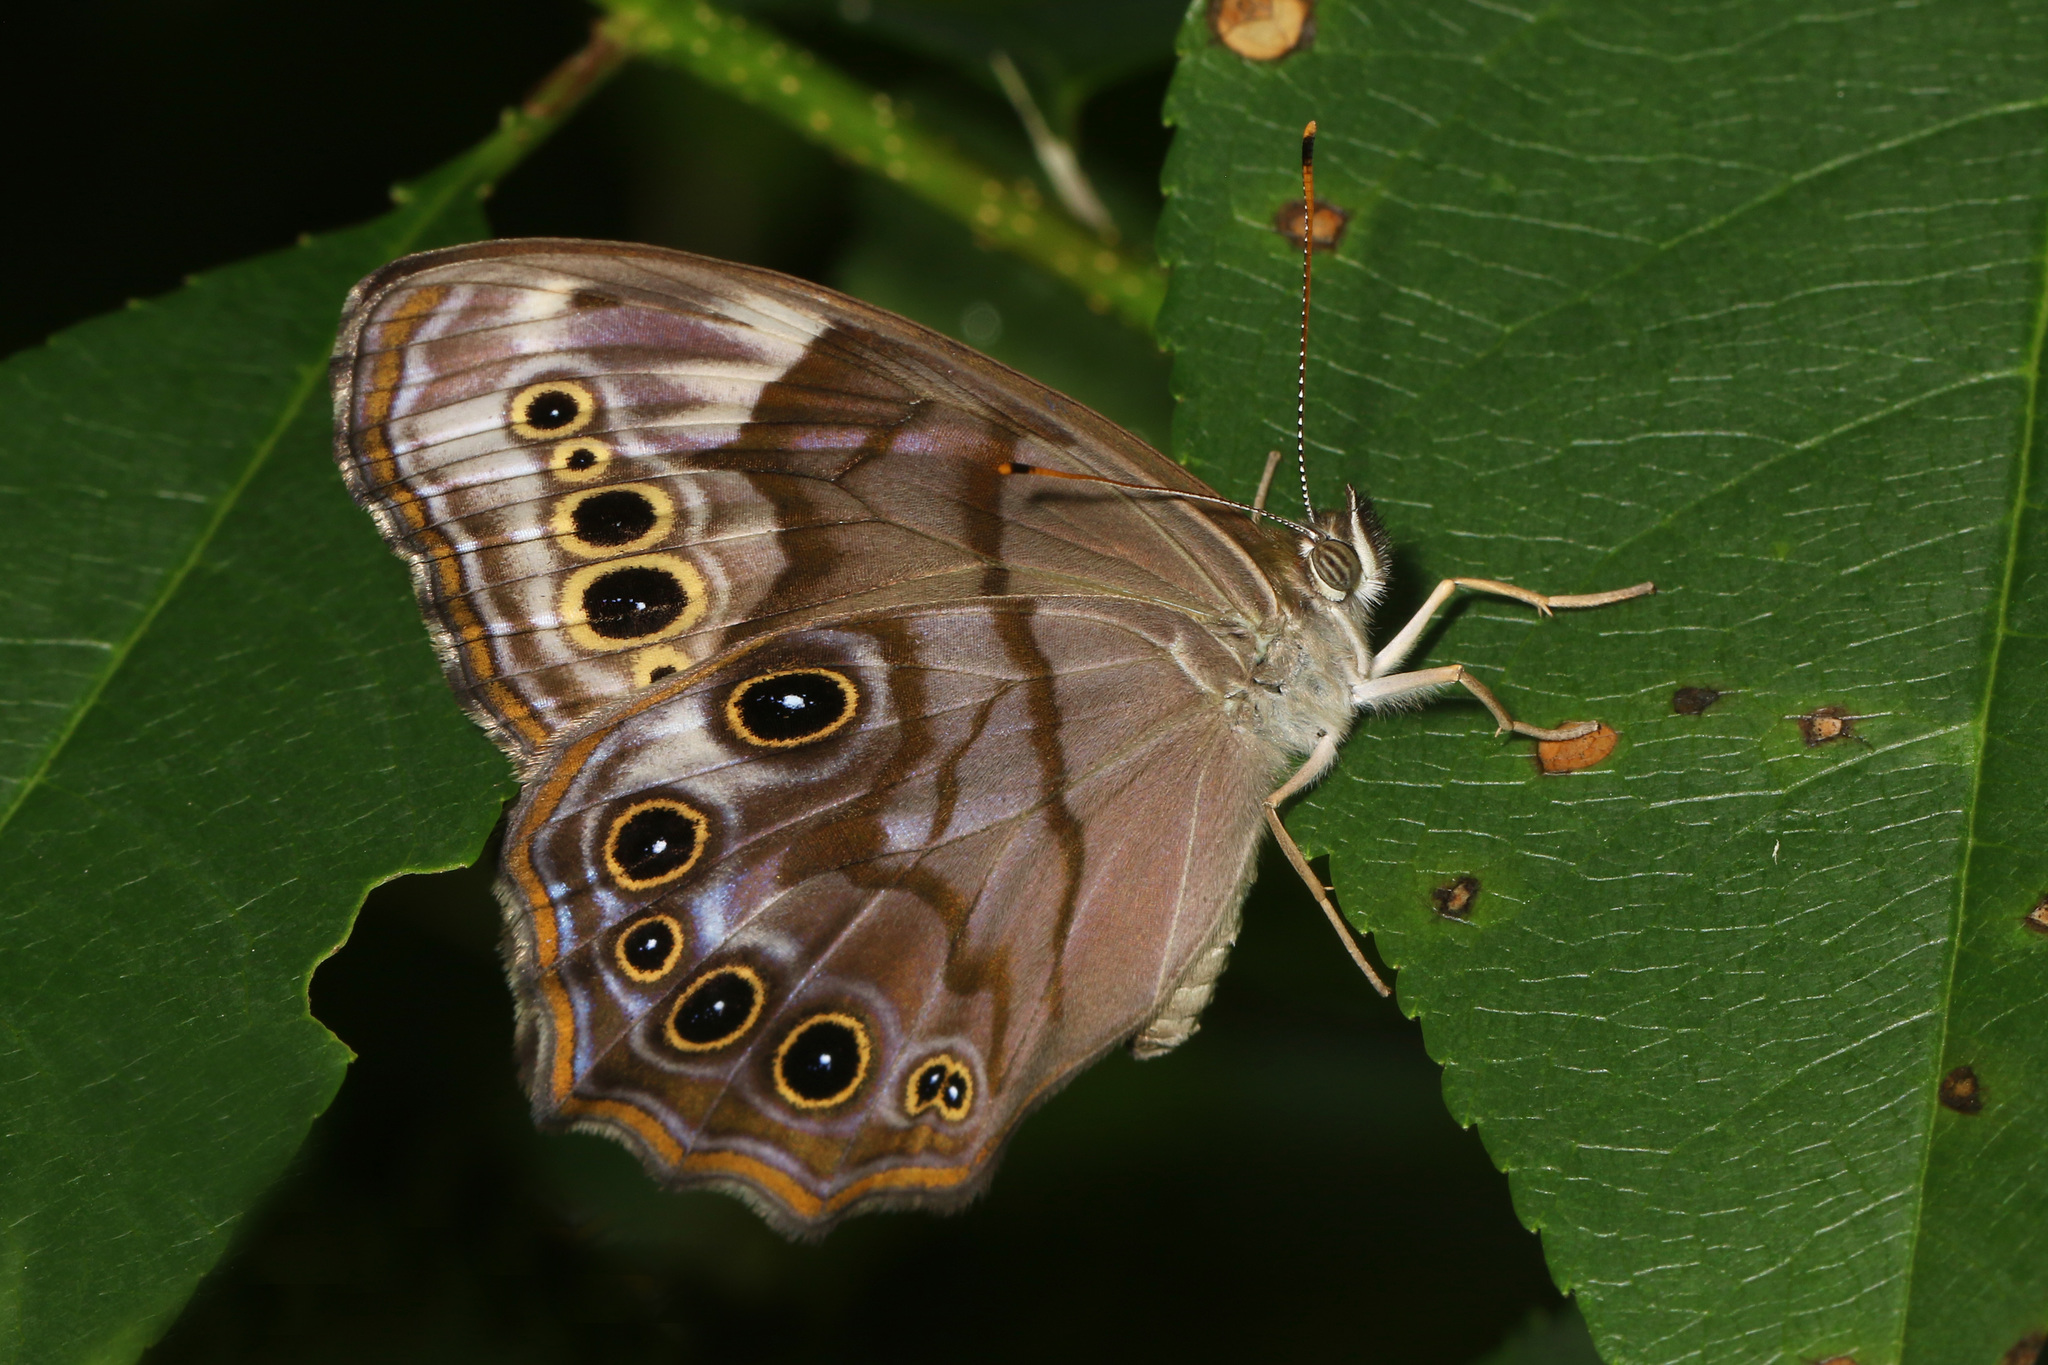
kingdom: Animalia
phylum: Arthropoda
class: Insecta
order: Lepidoptera
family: Nymphalidae
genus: Lethe
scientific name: Lethe anthedon
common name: Northern pearly-eye
